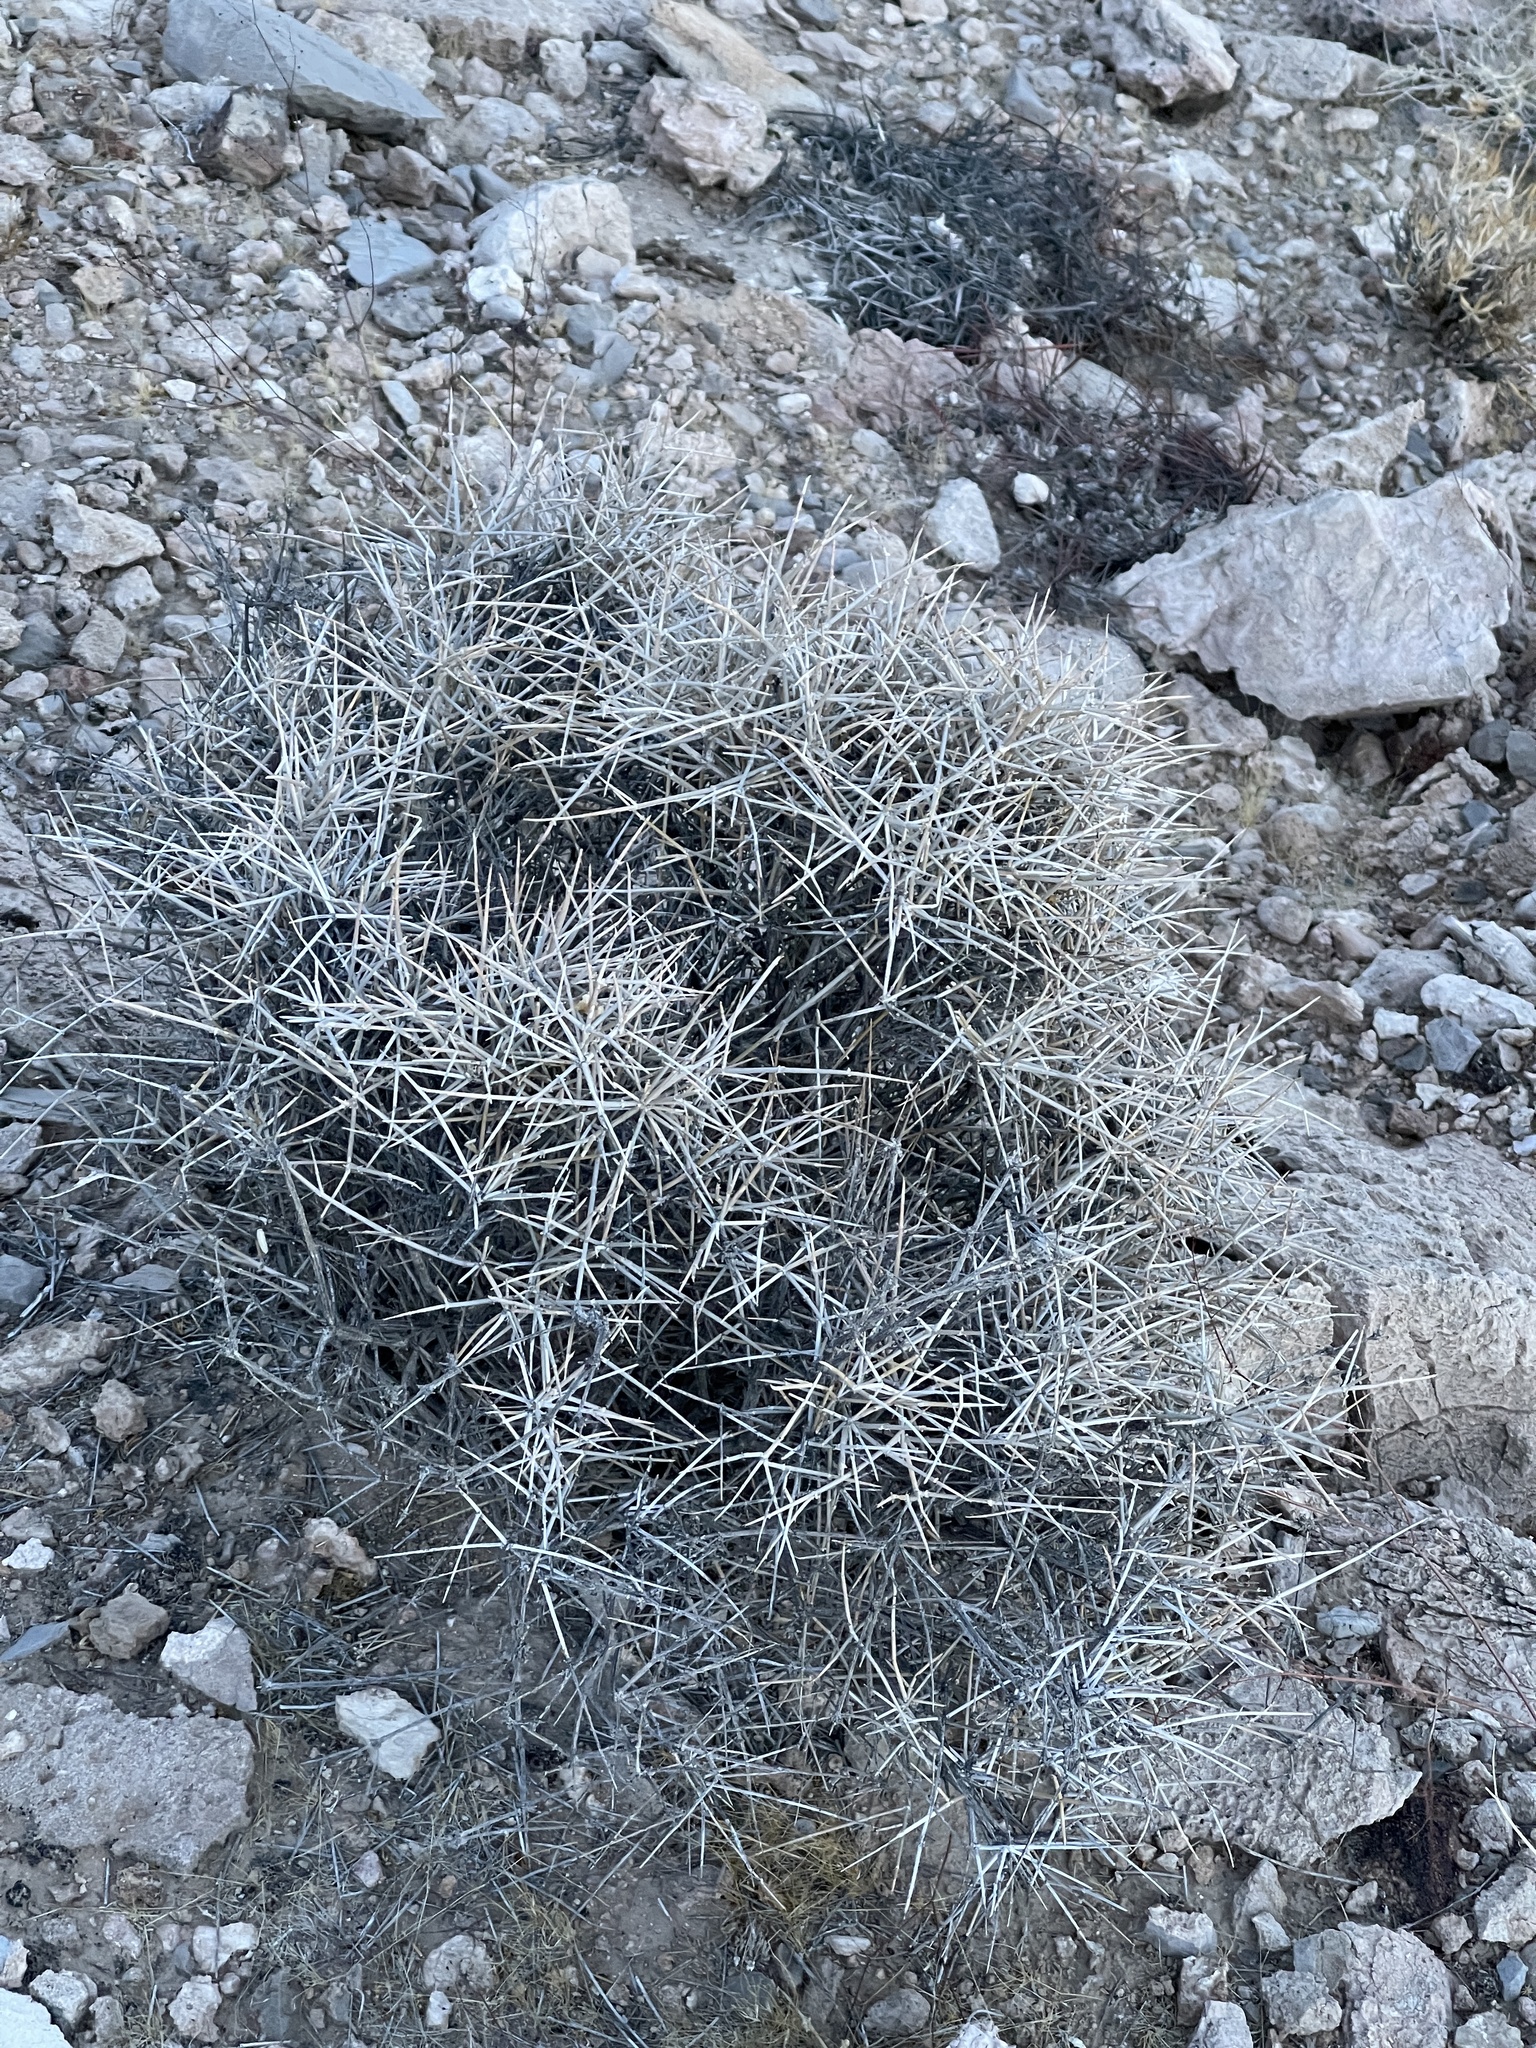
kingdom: Plantae
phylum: Tracheophyta
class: Gnetopsida
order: Ephedrales
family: Ephedraceae
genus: Ephedra
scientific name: Ephedra nevadensis
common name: Gray ephedra
